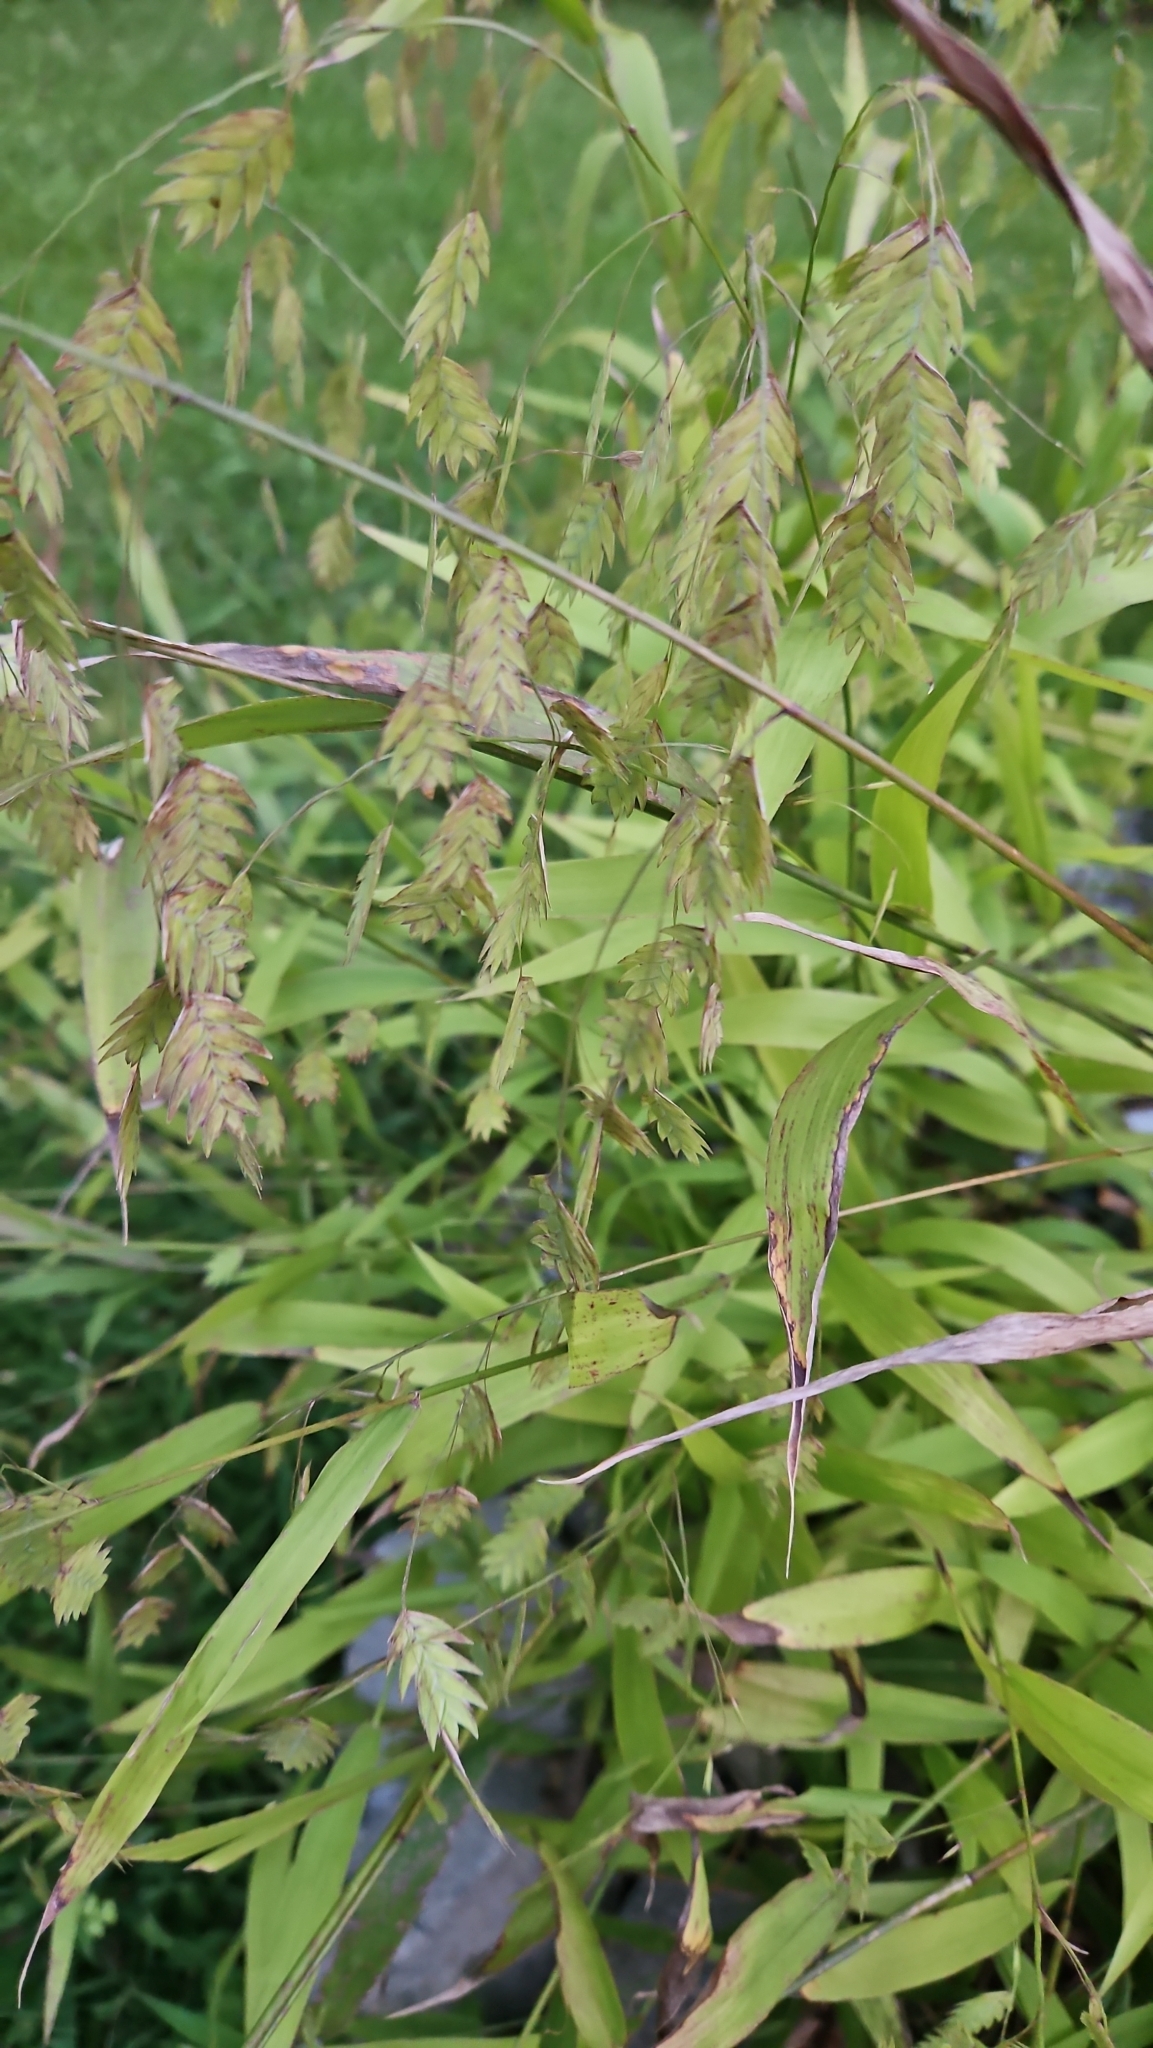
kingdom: Plantae
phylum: Tracheophyta
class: Liliopsida
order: Poales
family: Poaceae
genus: Chasmanthium
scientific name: Chasmanthium latifolium
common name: Broad-leaved chasmanthium
